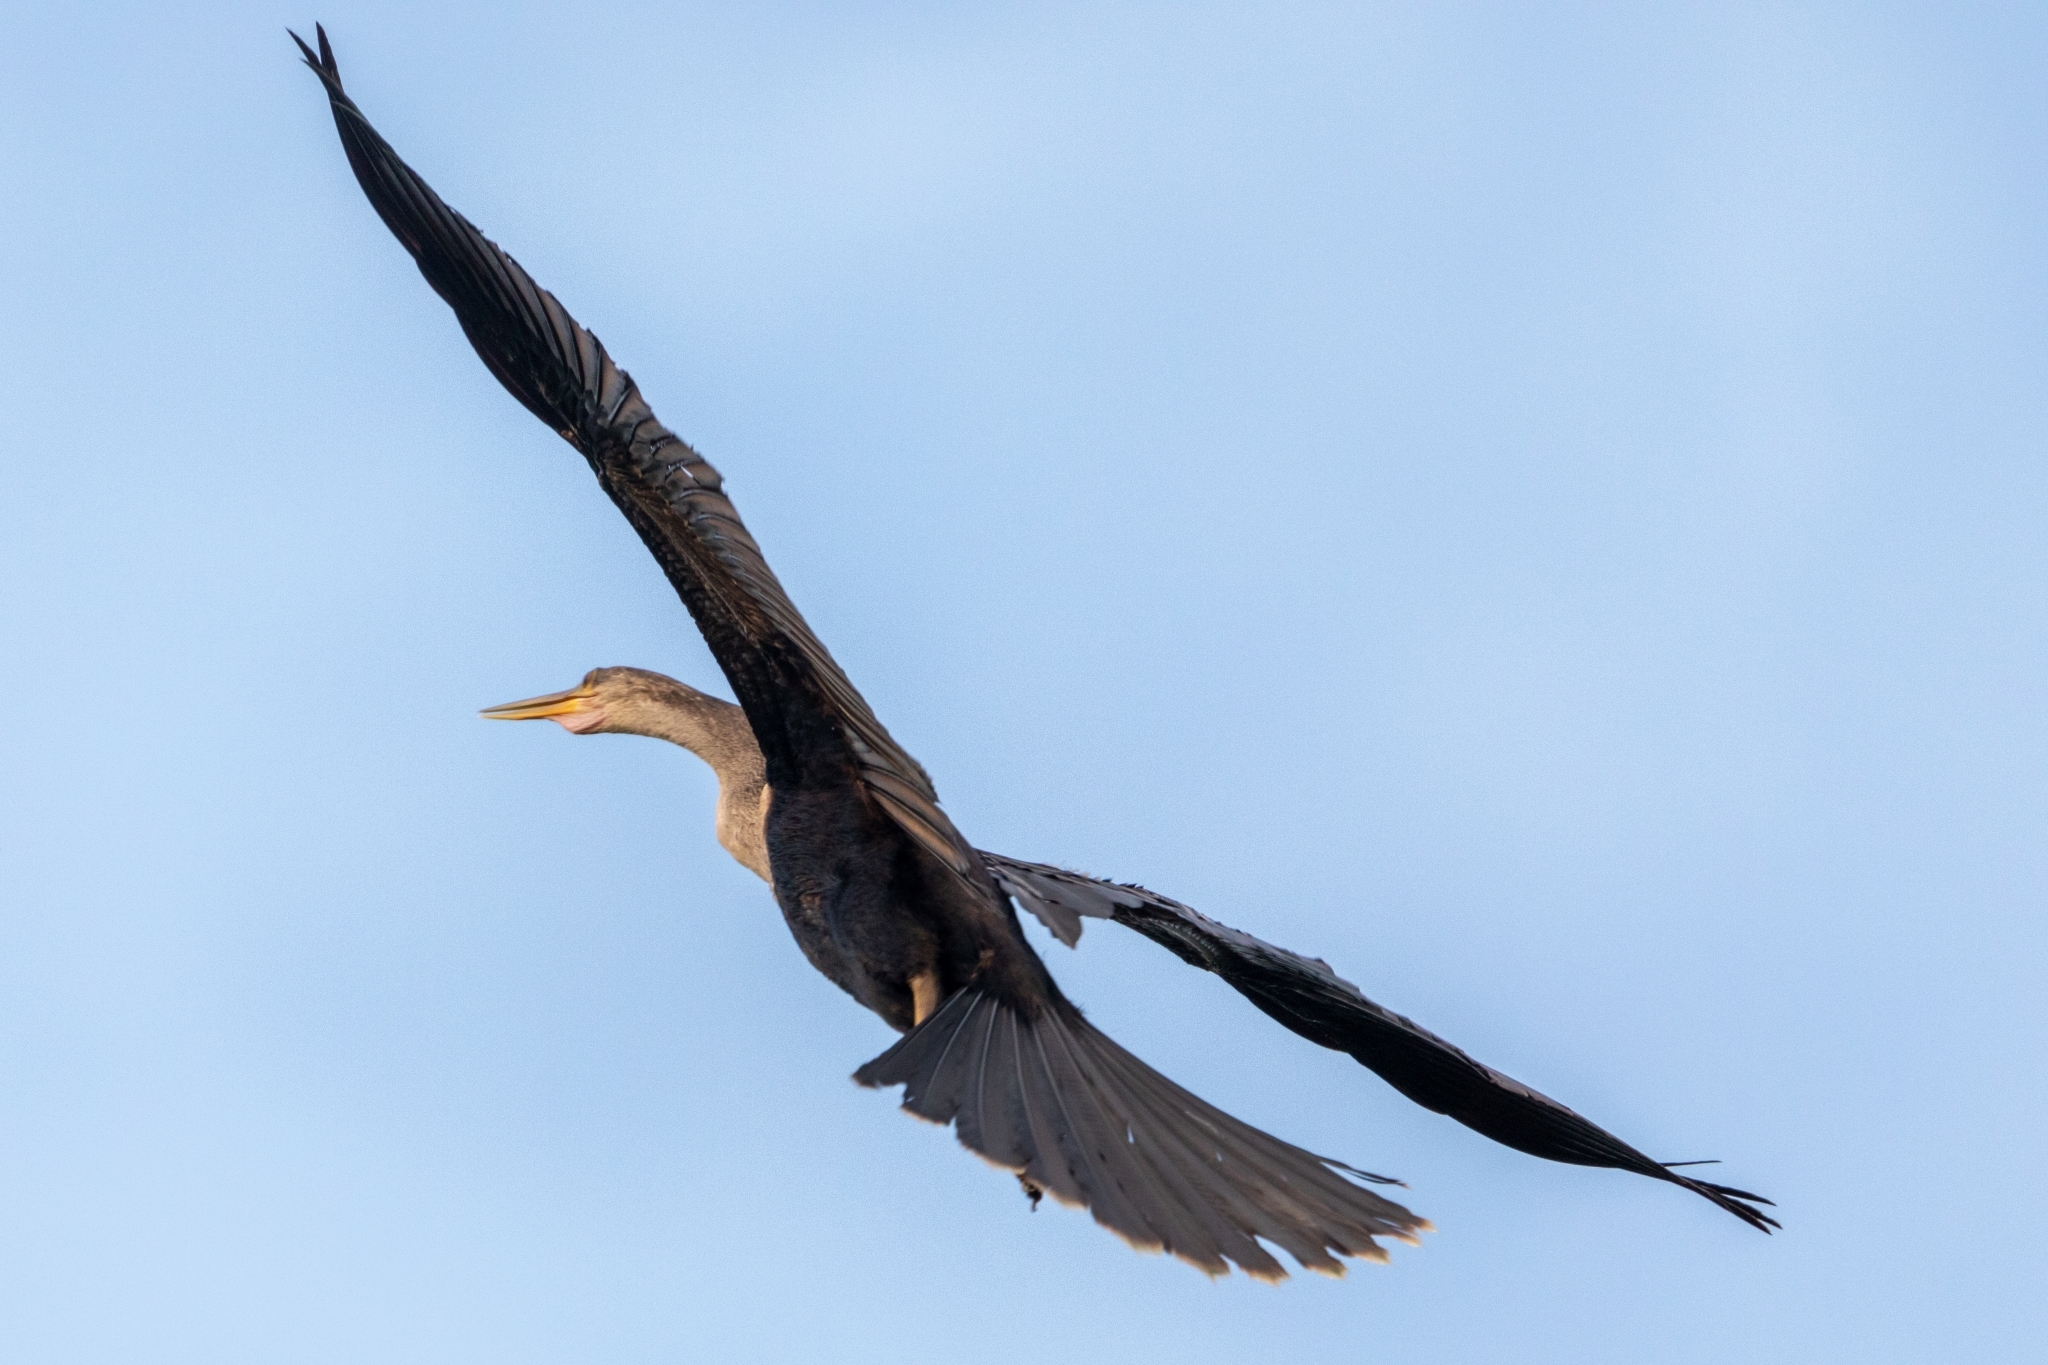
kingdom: Animalia
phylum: Chordata
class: Aves
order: Suliformes
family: Anhingidae
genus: Anhinga
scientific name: Anhinga anhinga
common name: Anhinga
